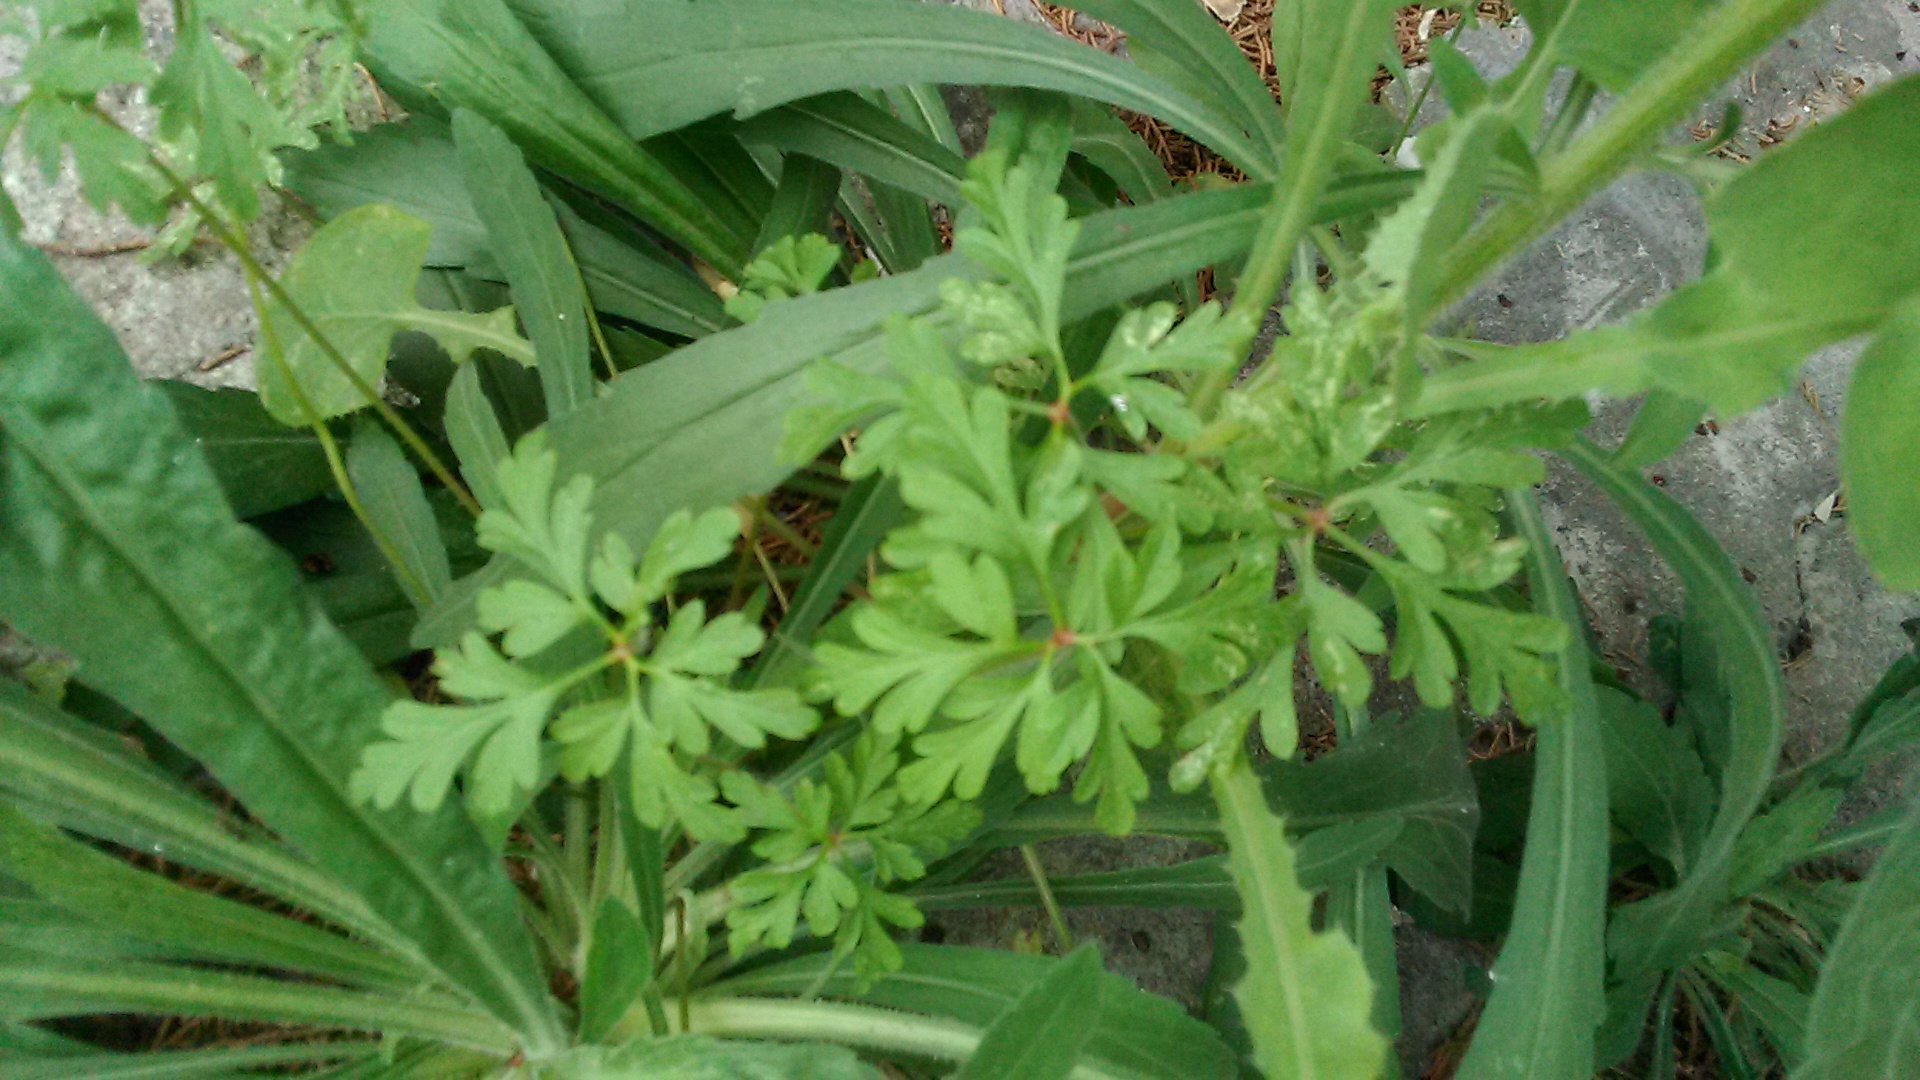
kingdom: Plantae
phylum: Tracheophyta
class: Magnoliopsida
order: Geraniales
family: Geraniaceae
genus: Geranium
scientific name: Geranium robertianum
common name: Herb-robert
